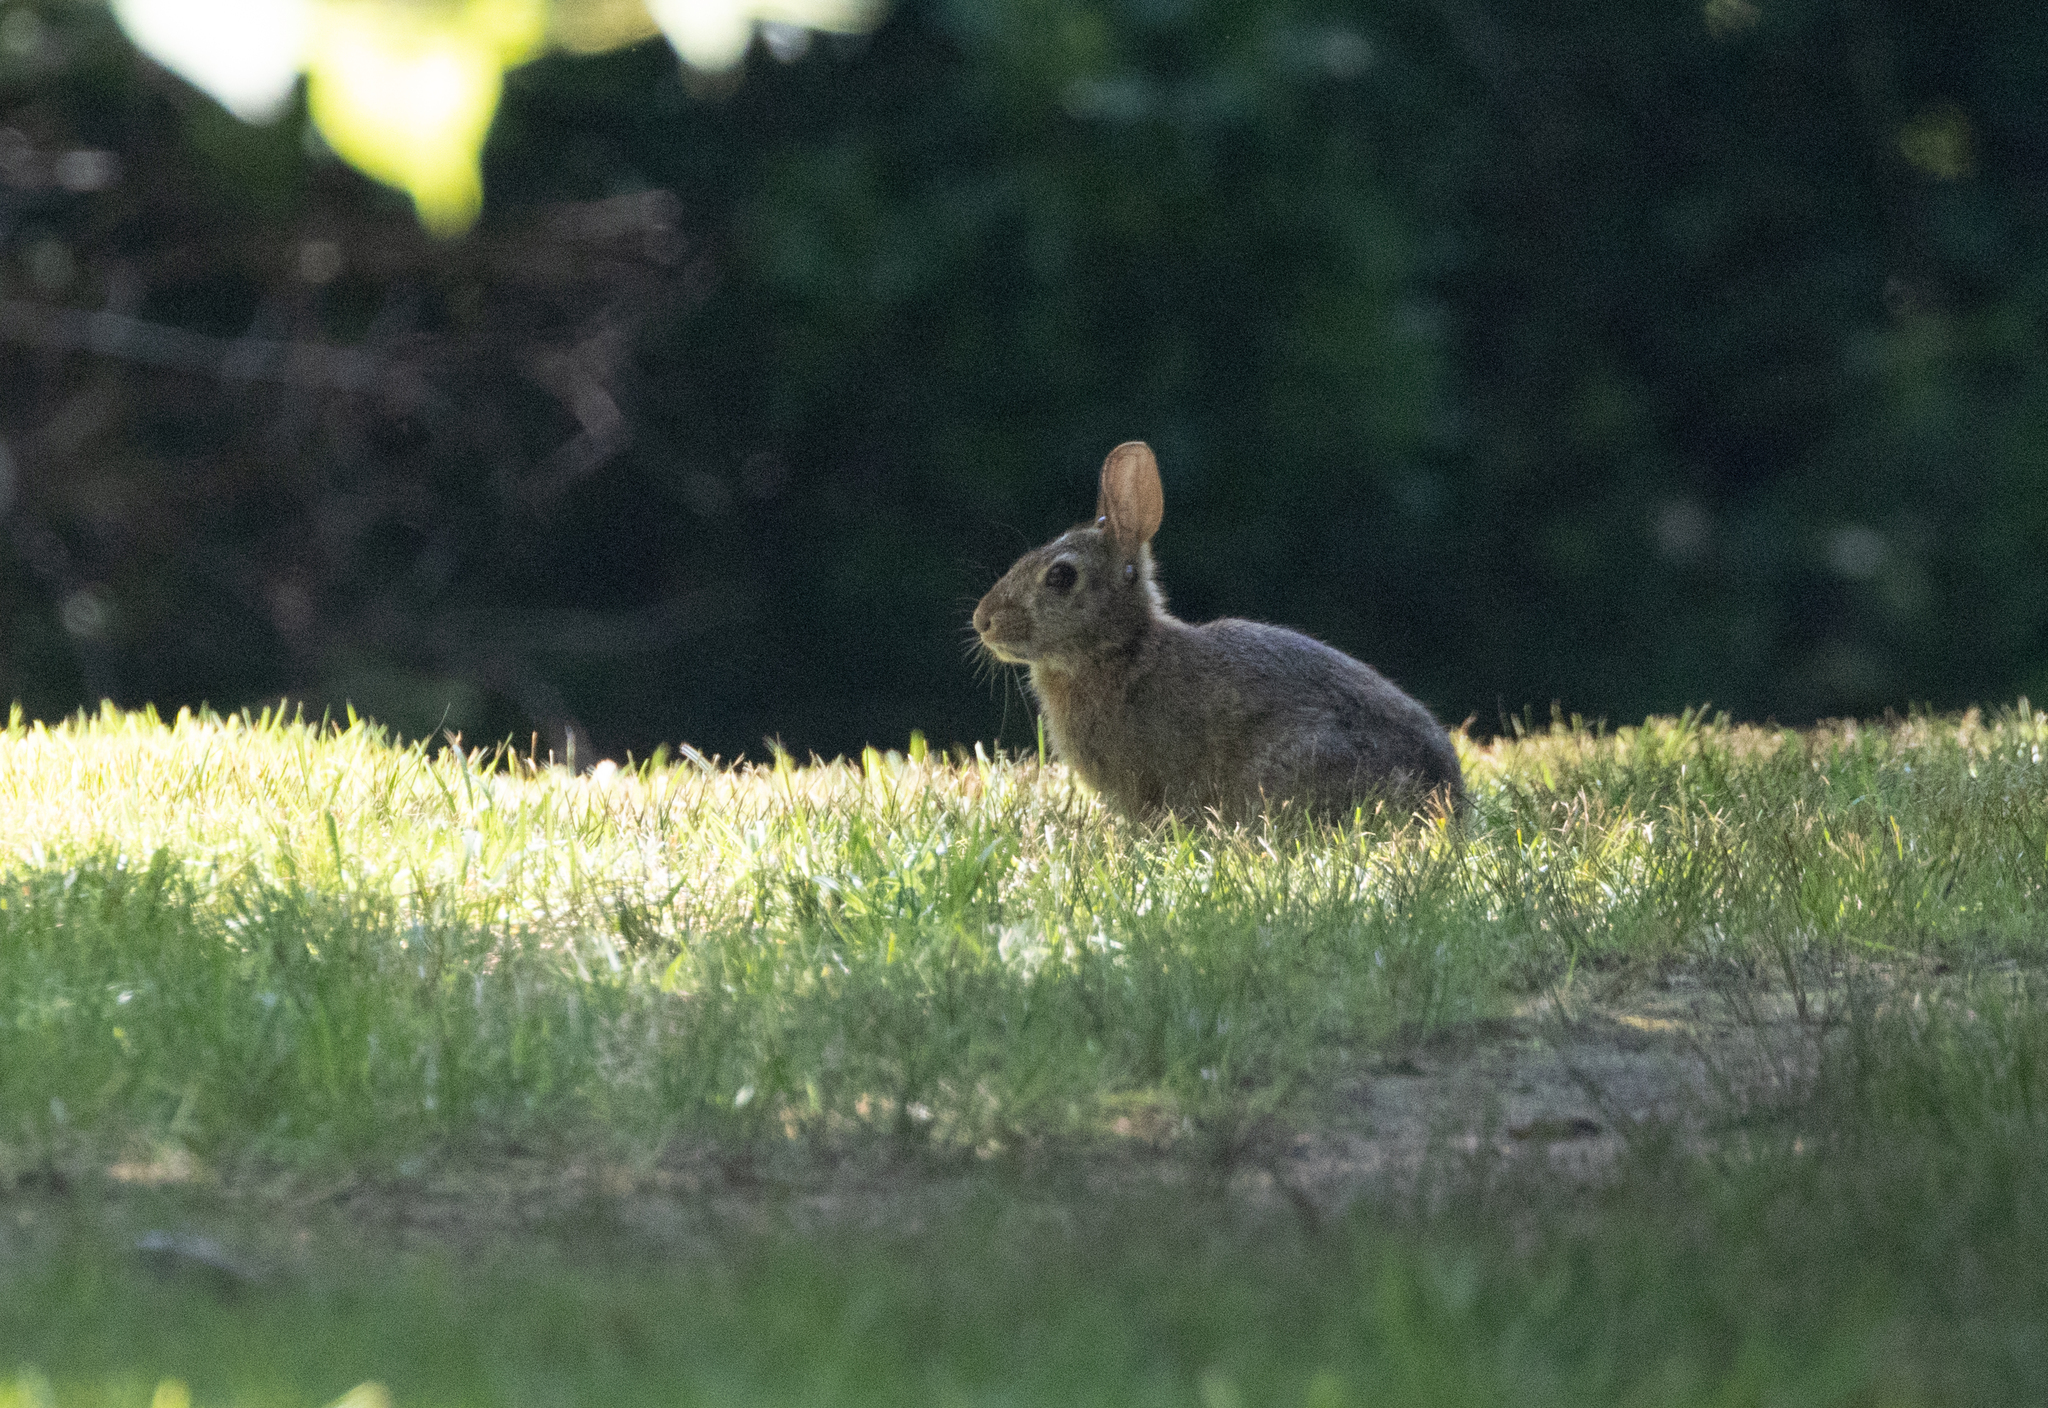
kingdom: Animalia
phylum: Chordata
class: Mammalia
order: Lagomorpha
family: Leporidae
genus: Sylvilagus
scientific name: Sylvilagus floridanus
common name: Eastern cottontail
